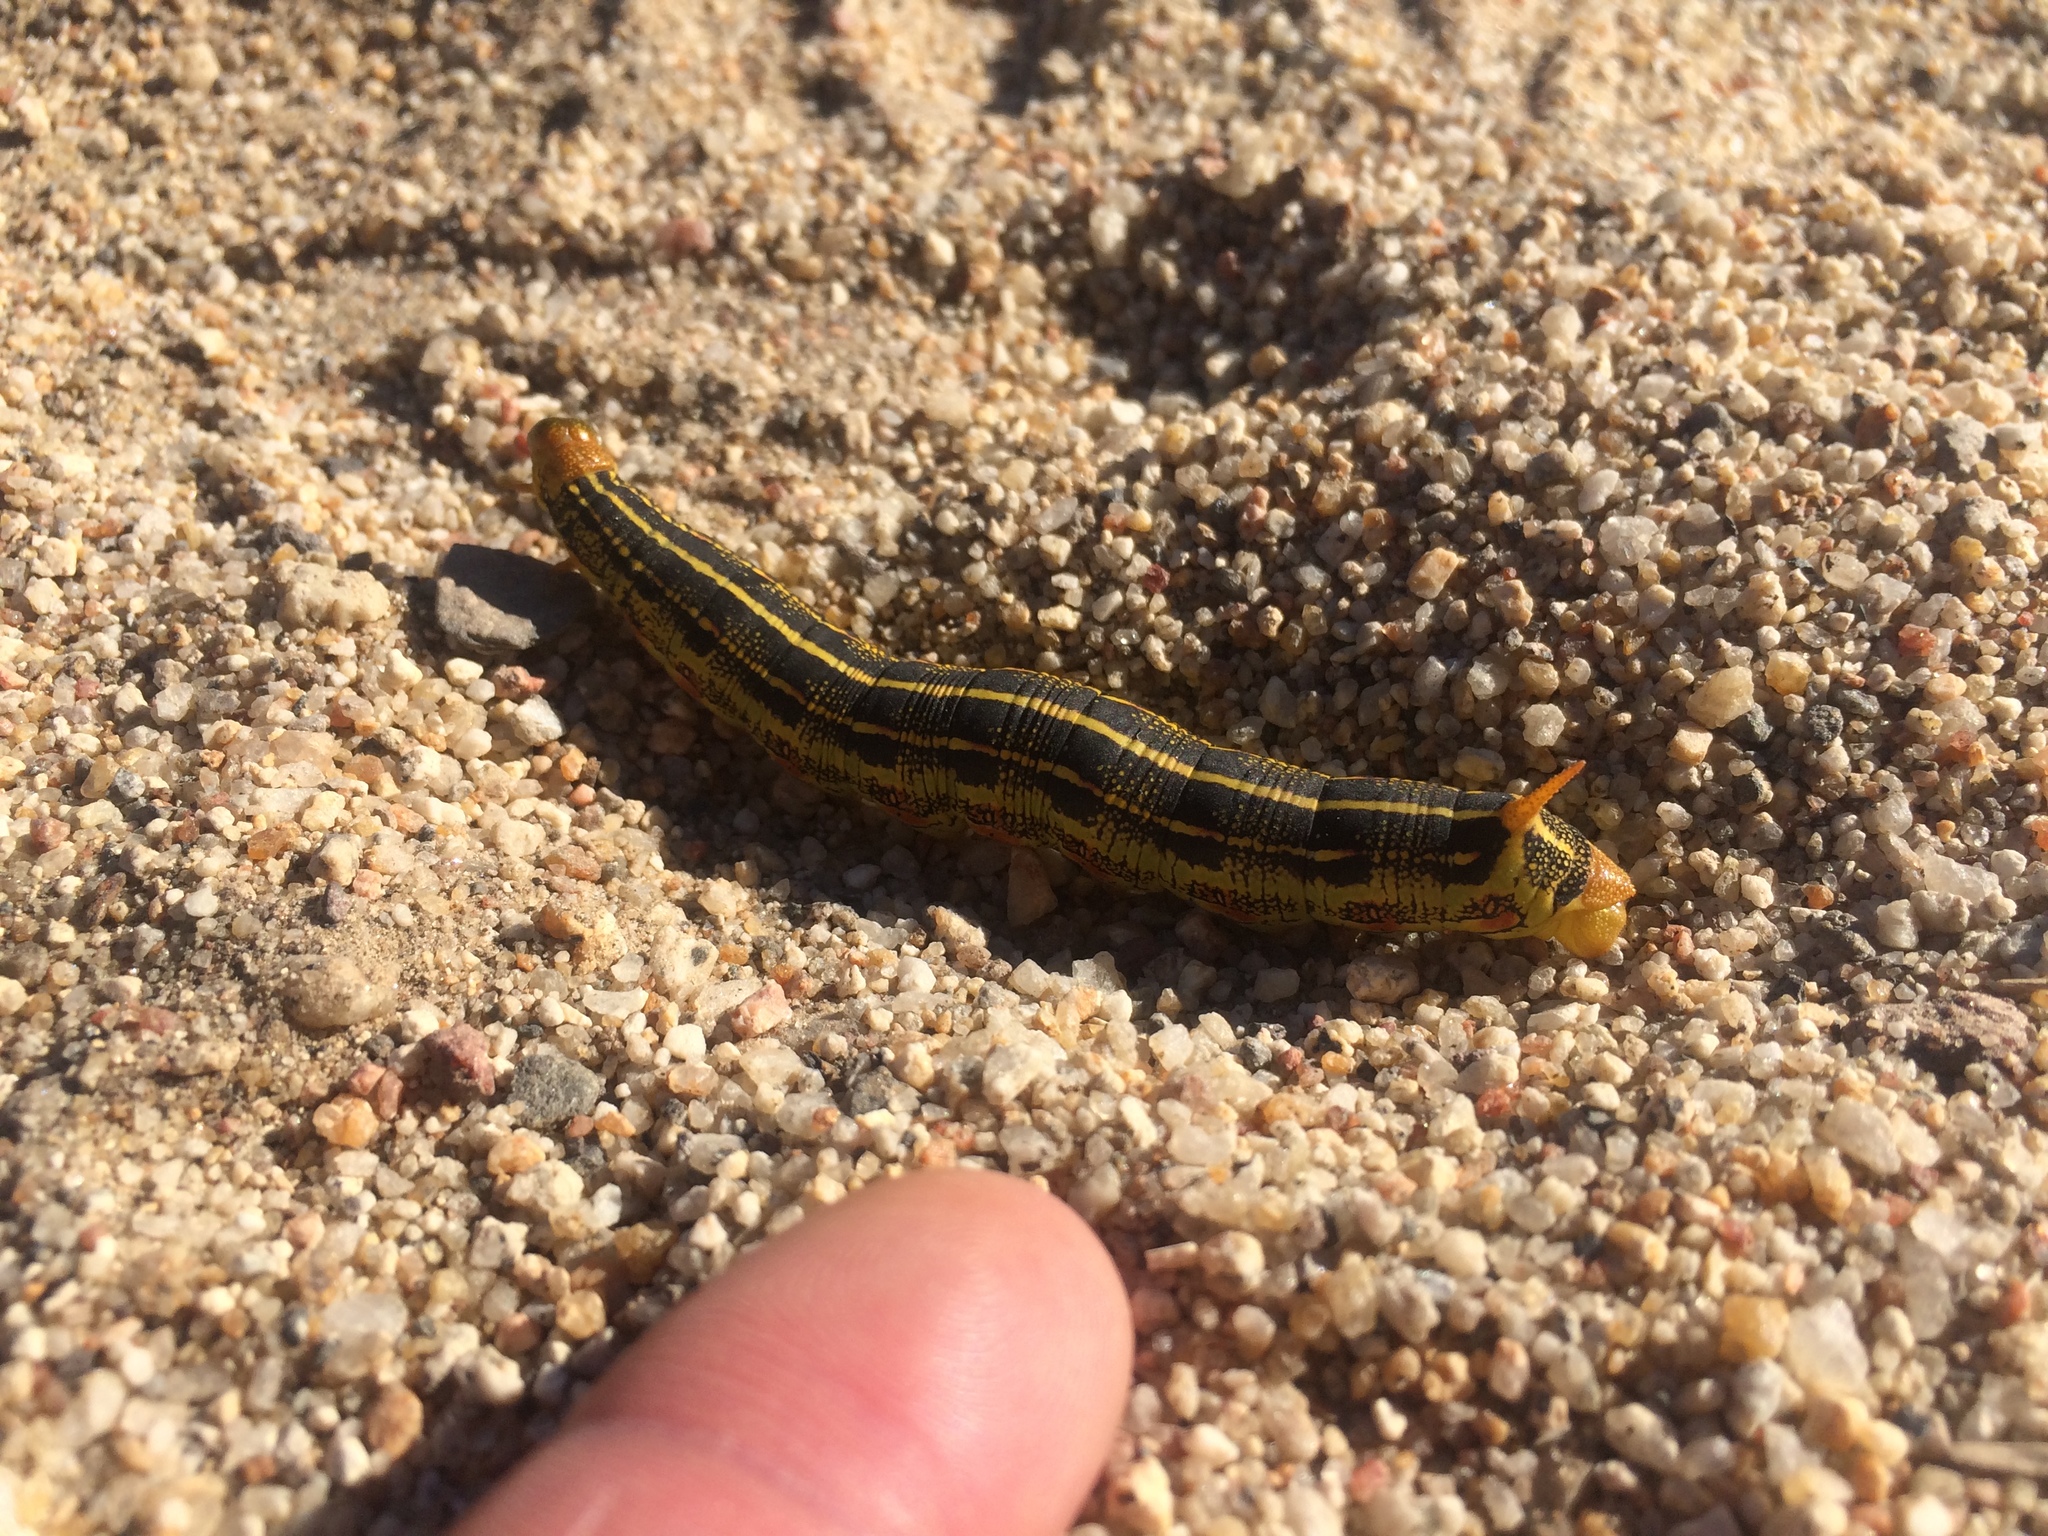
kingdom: Animalia
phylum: Arthropoda
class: Insecta
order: Lepidoptera
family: Sphingidae
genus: Hyles
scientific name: Hyles lineata
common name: White-lined sphinx
